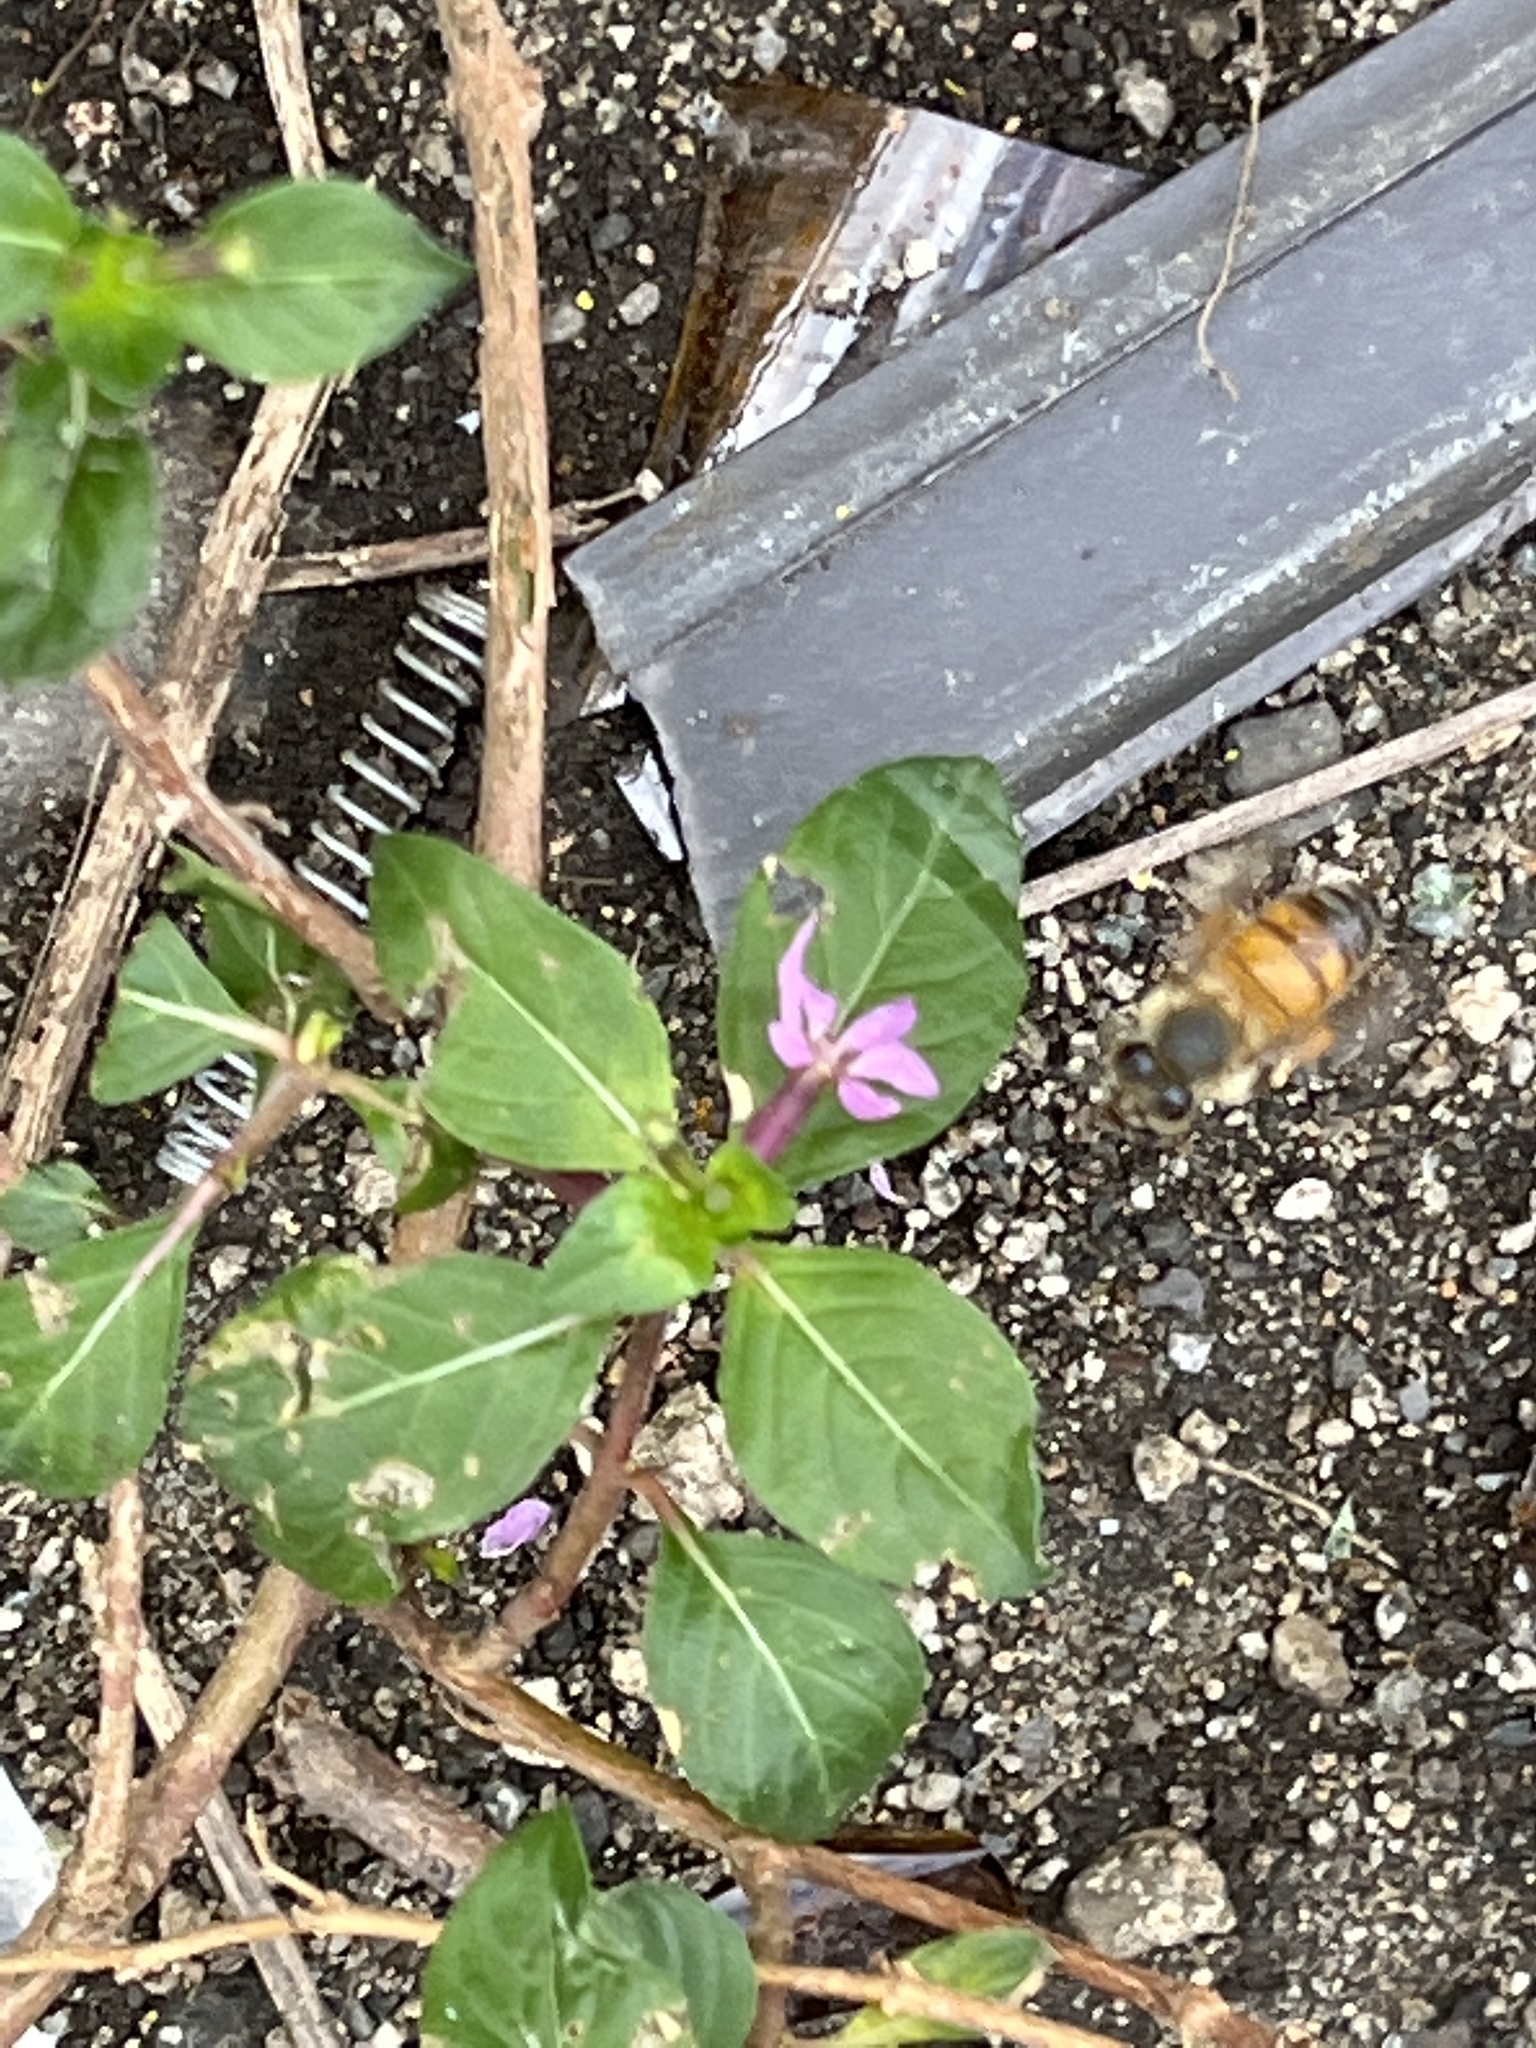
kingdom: Animalia
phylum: Arthropoda
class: Insecta
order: Hymenoptera
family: Apidae
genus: Apis
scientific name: Apis mellifera
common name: Honey bee
